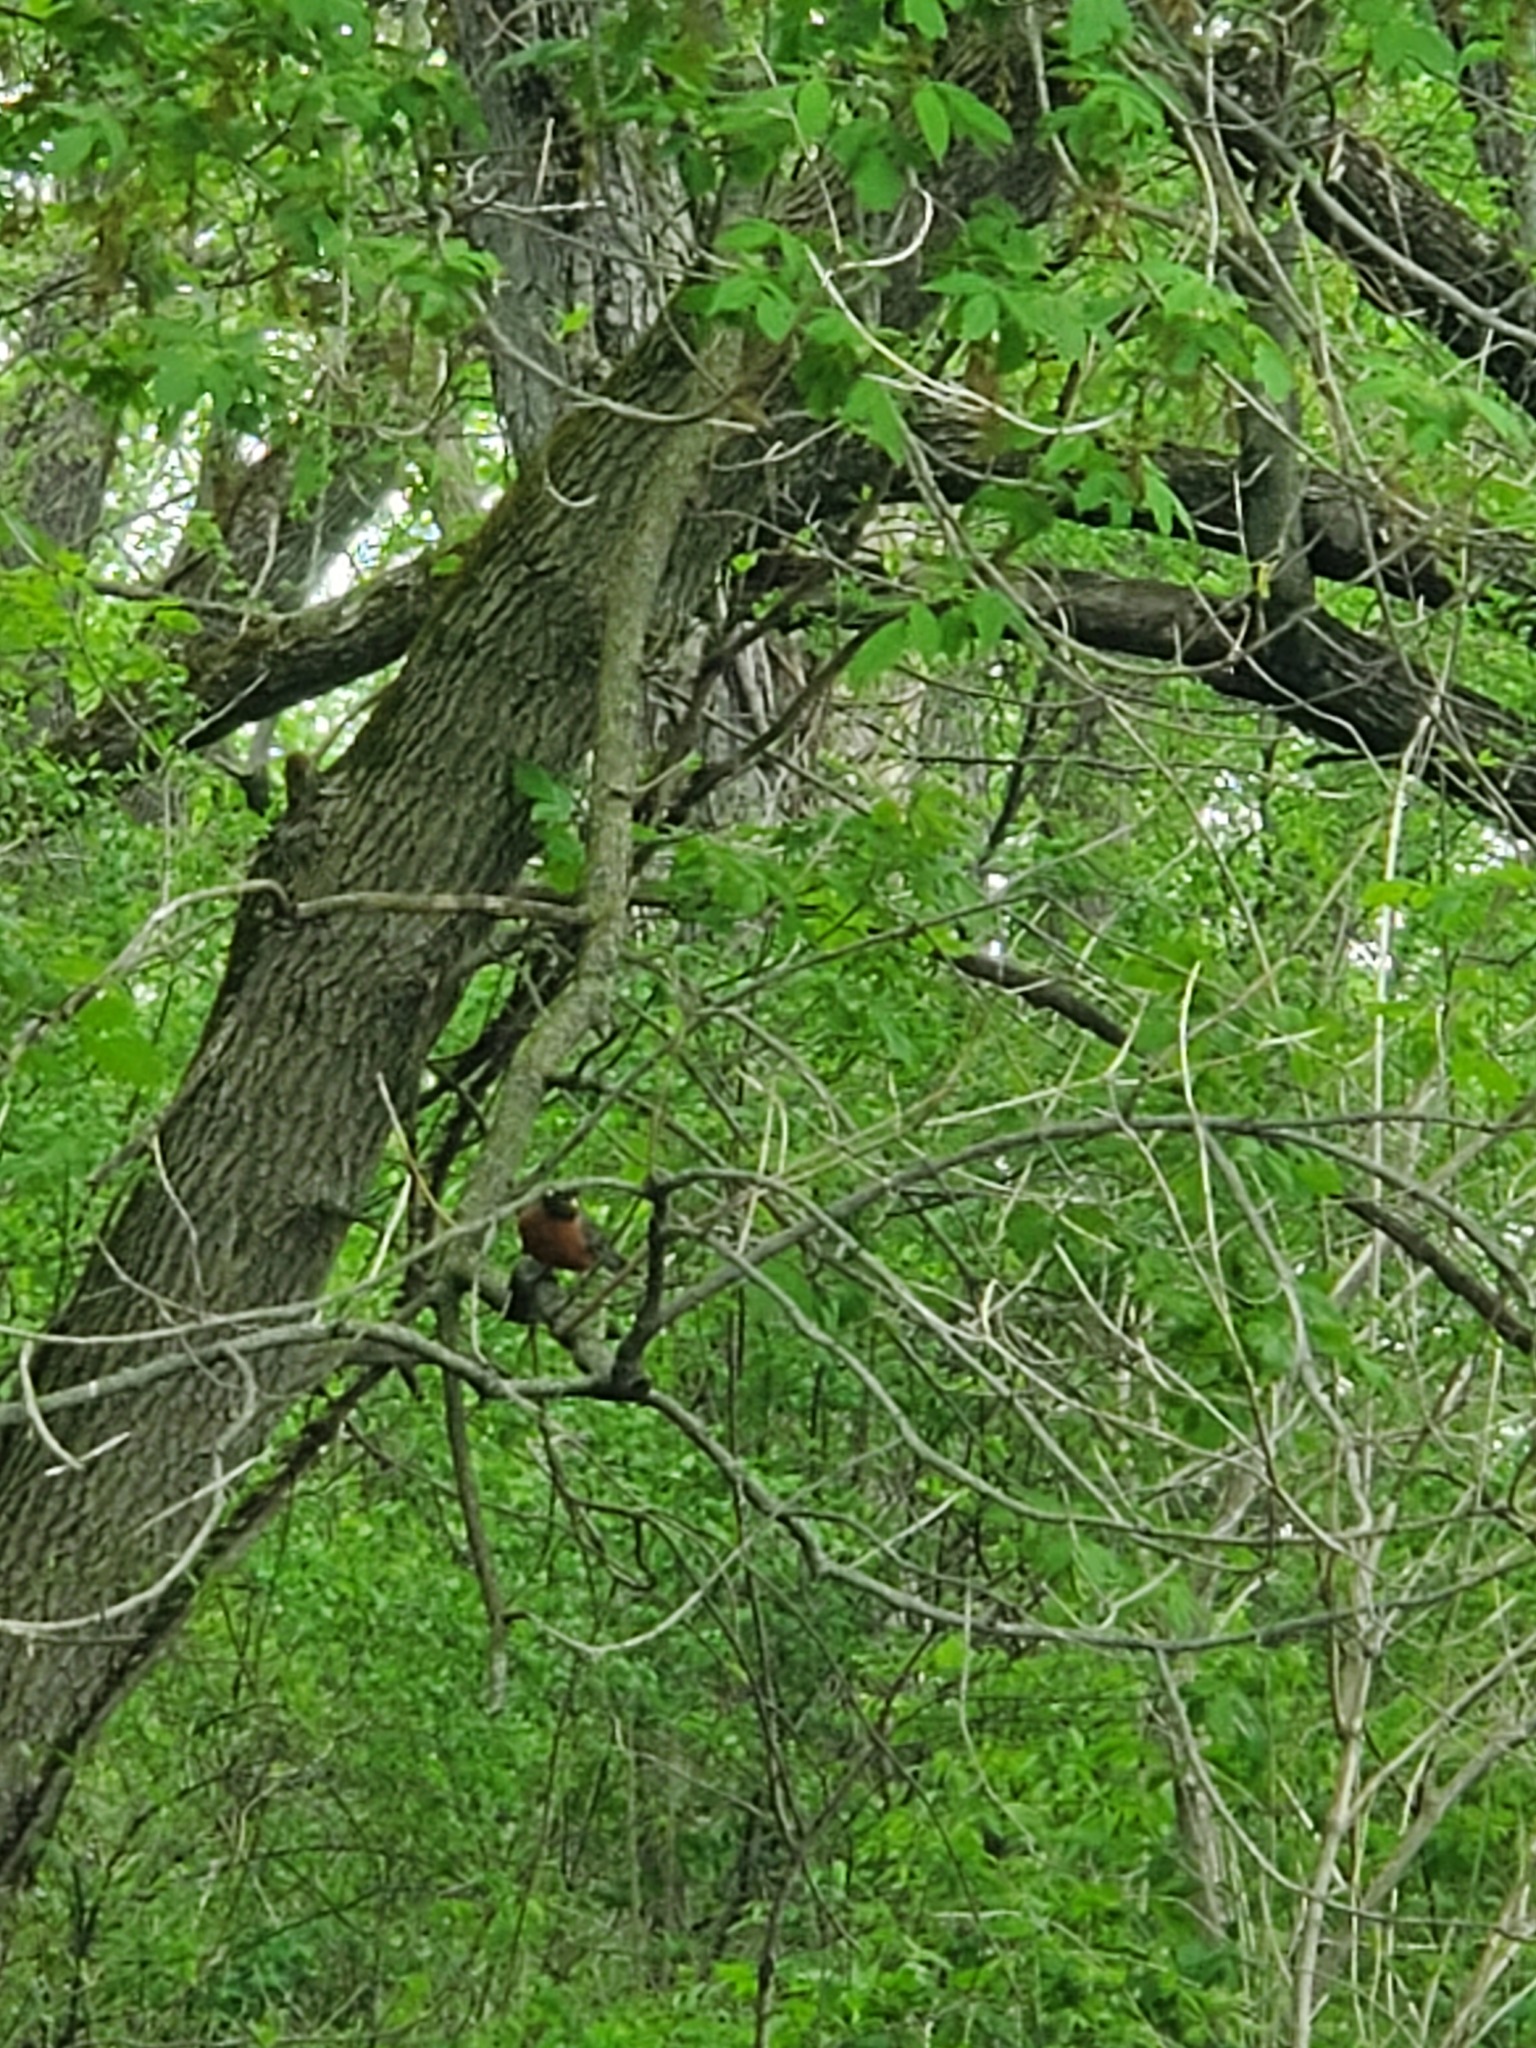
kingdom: Animalia
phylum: Chordata
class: Aves
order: Passeriformes
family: Turdidae
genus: Turdus
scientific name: Turdus migratorius
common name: American robin
